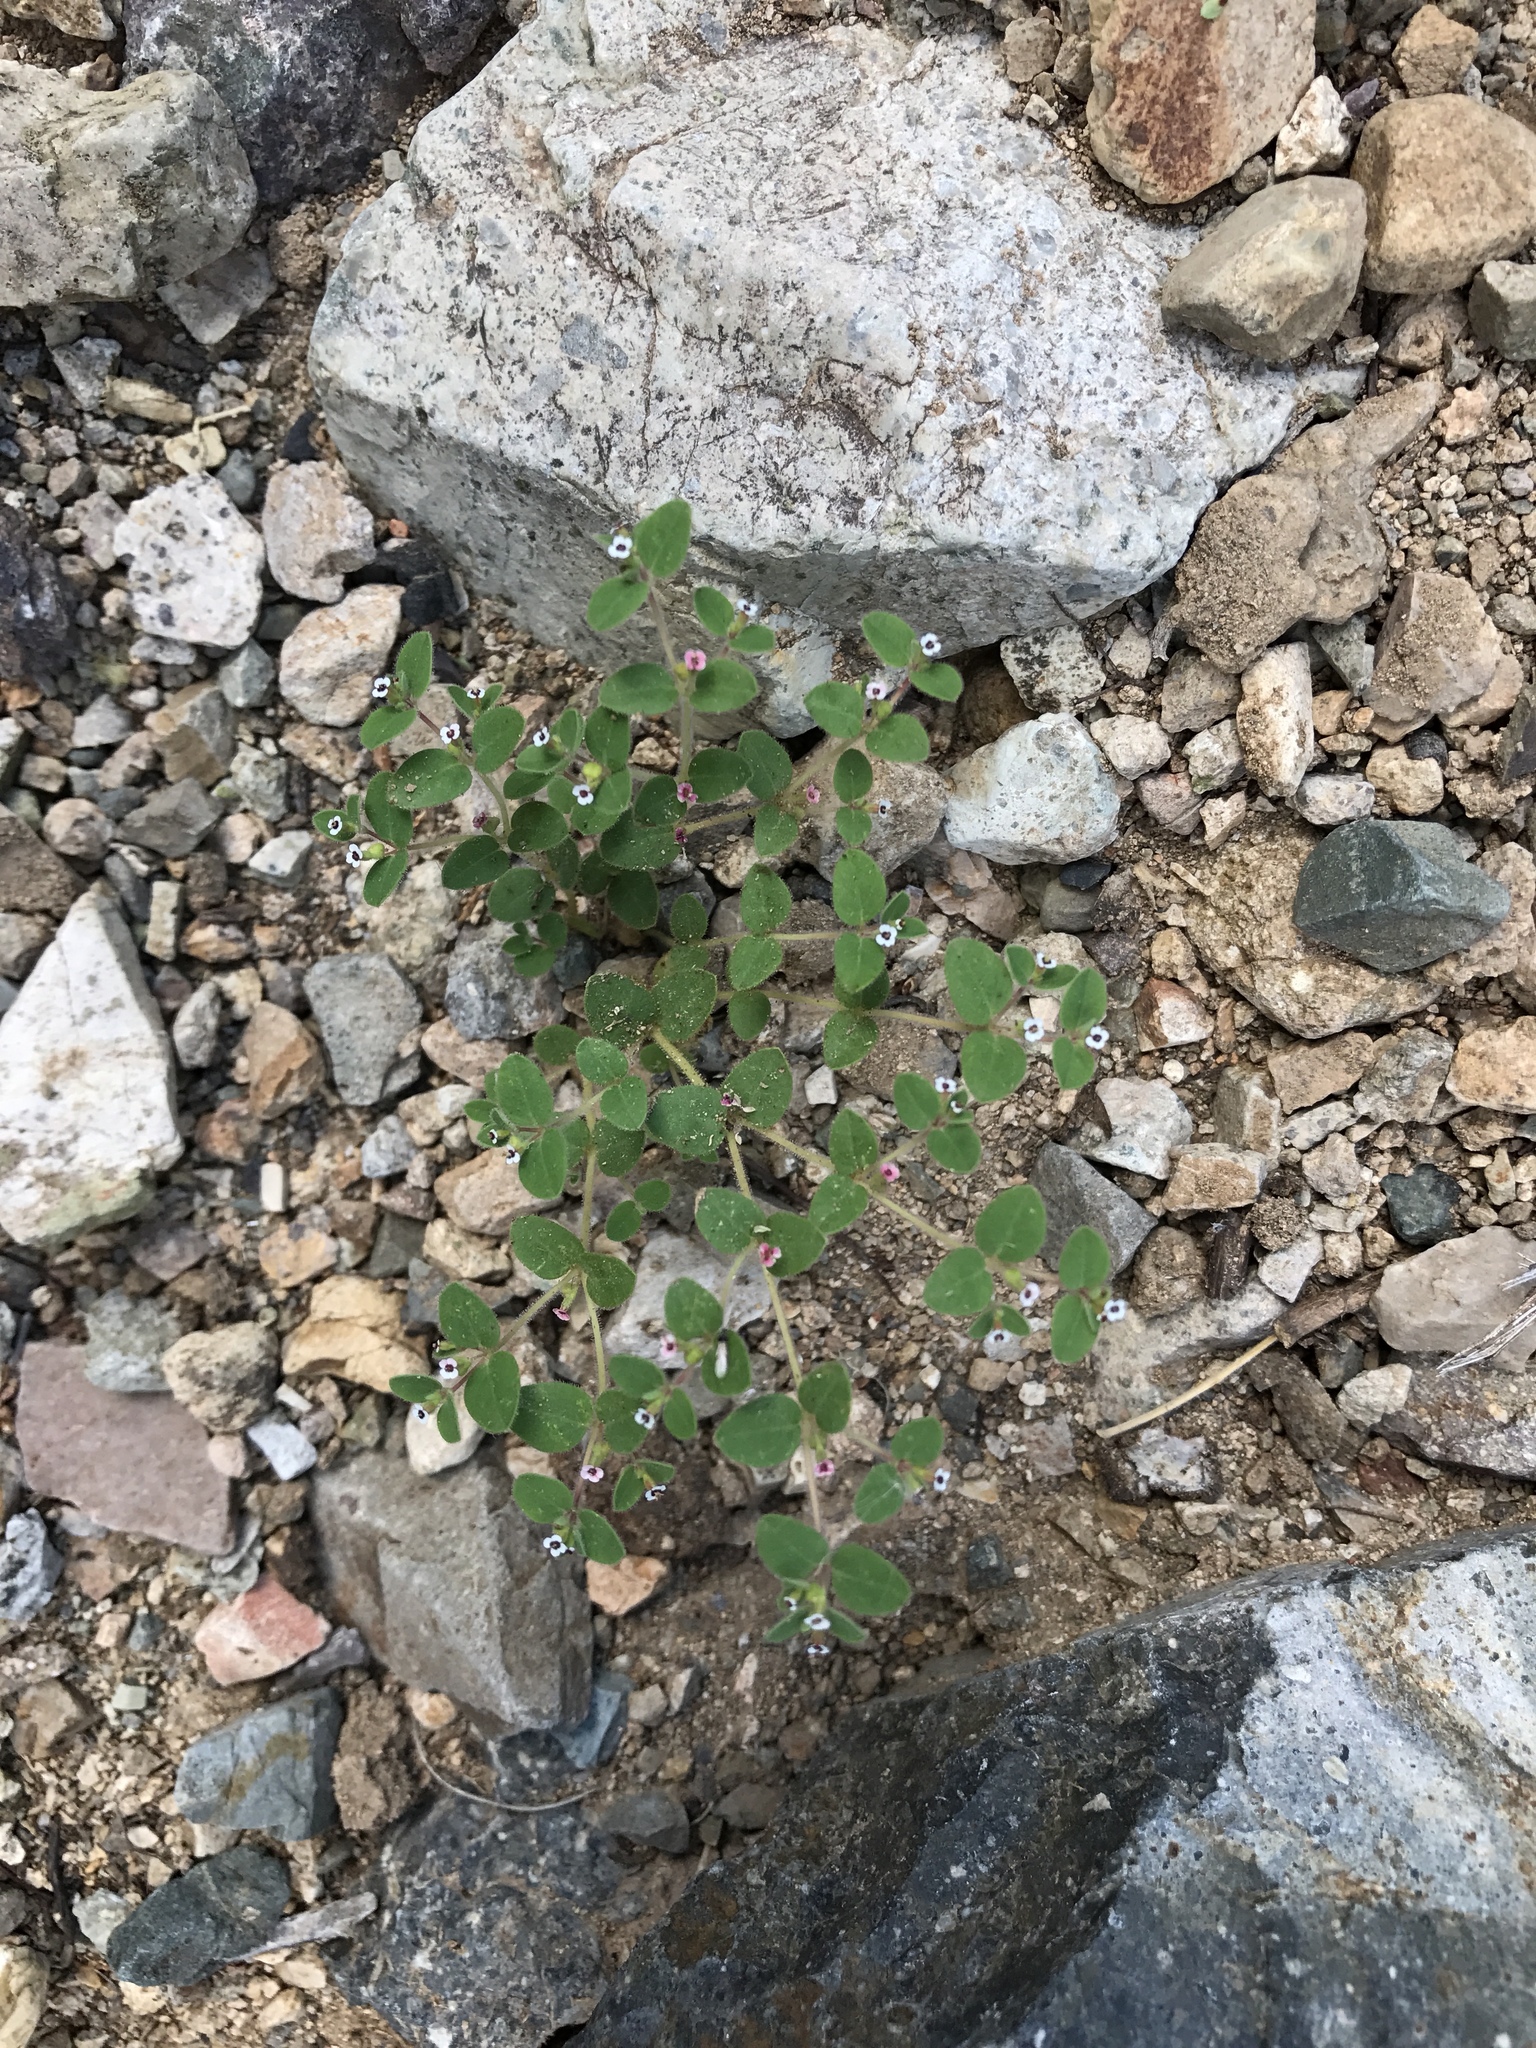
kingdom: Plantae
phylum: Tracheophyta
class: Magnoliopsida
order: Malpighiales
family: Euphorbiaceae
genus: Euphorbia
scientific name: Euphorbia arizonica
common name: Arizona spurge
